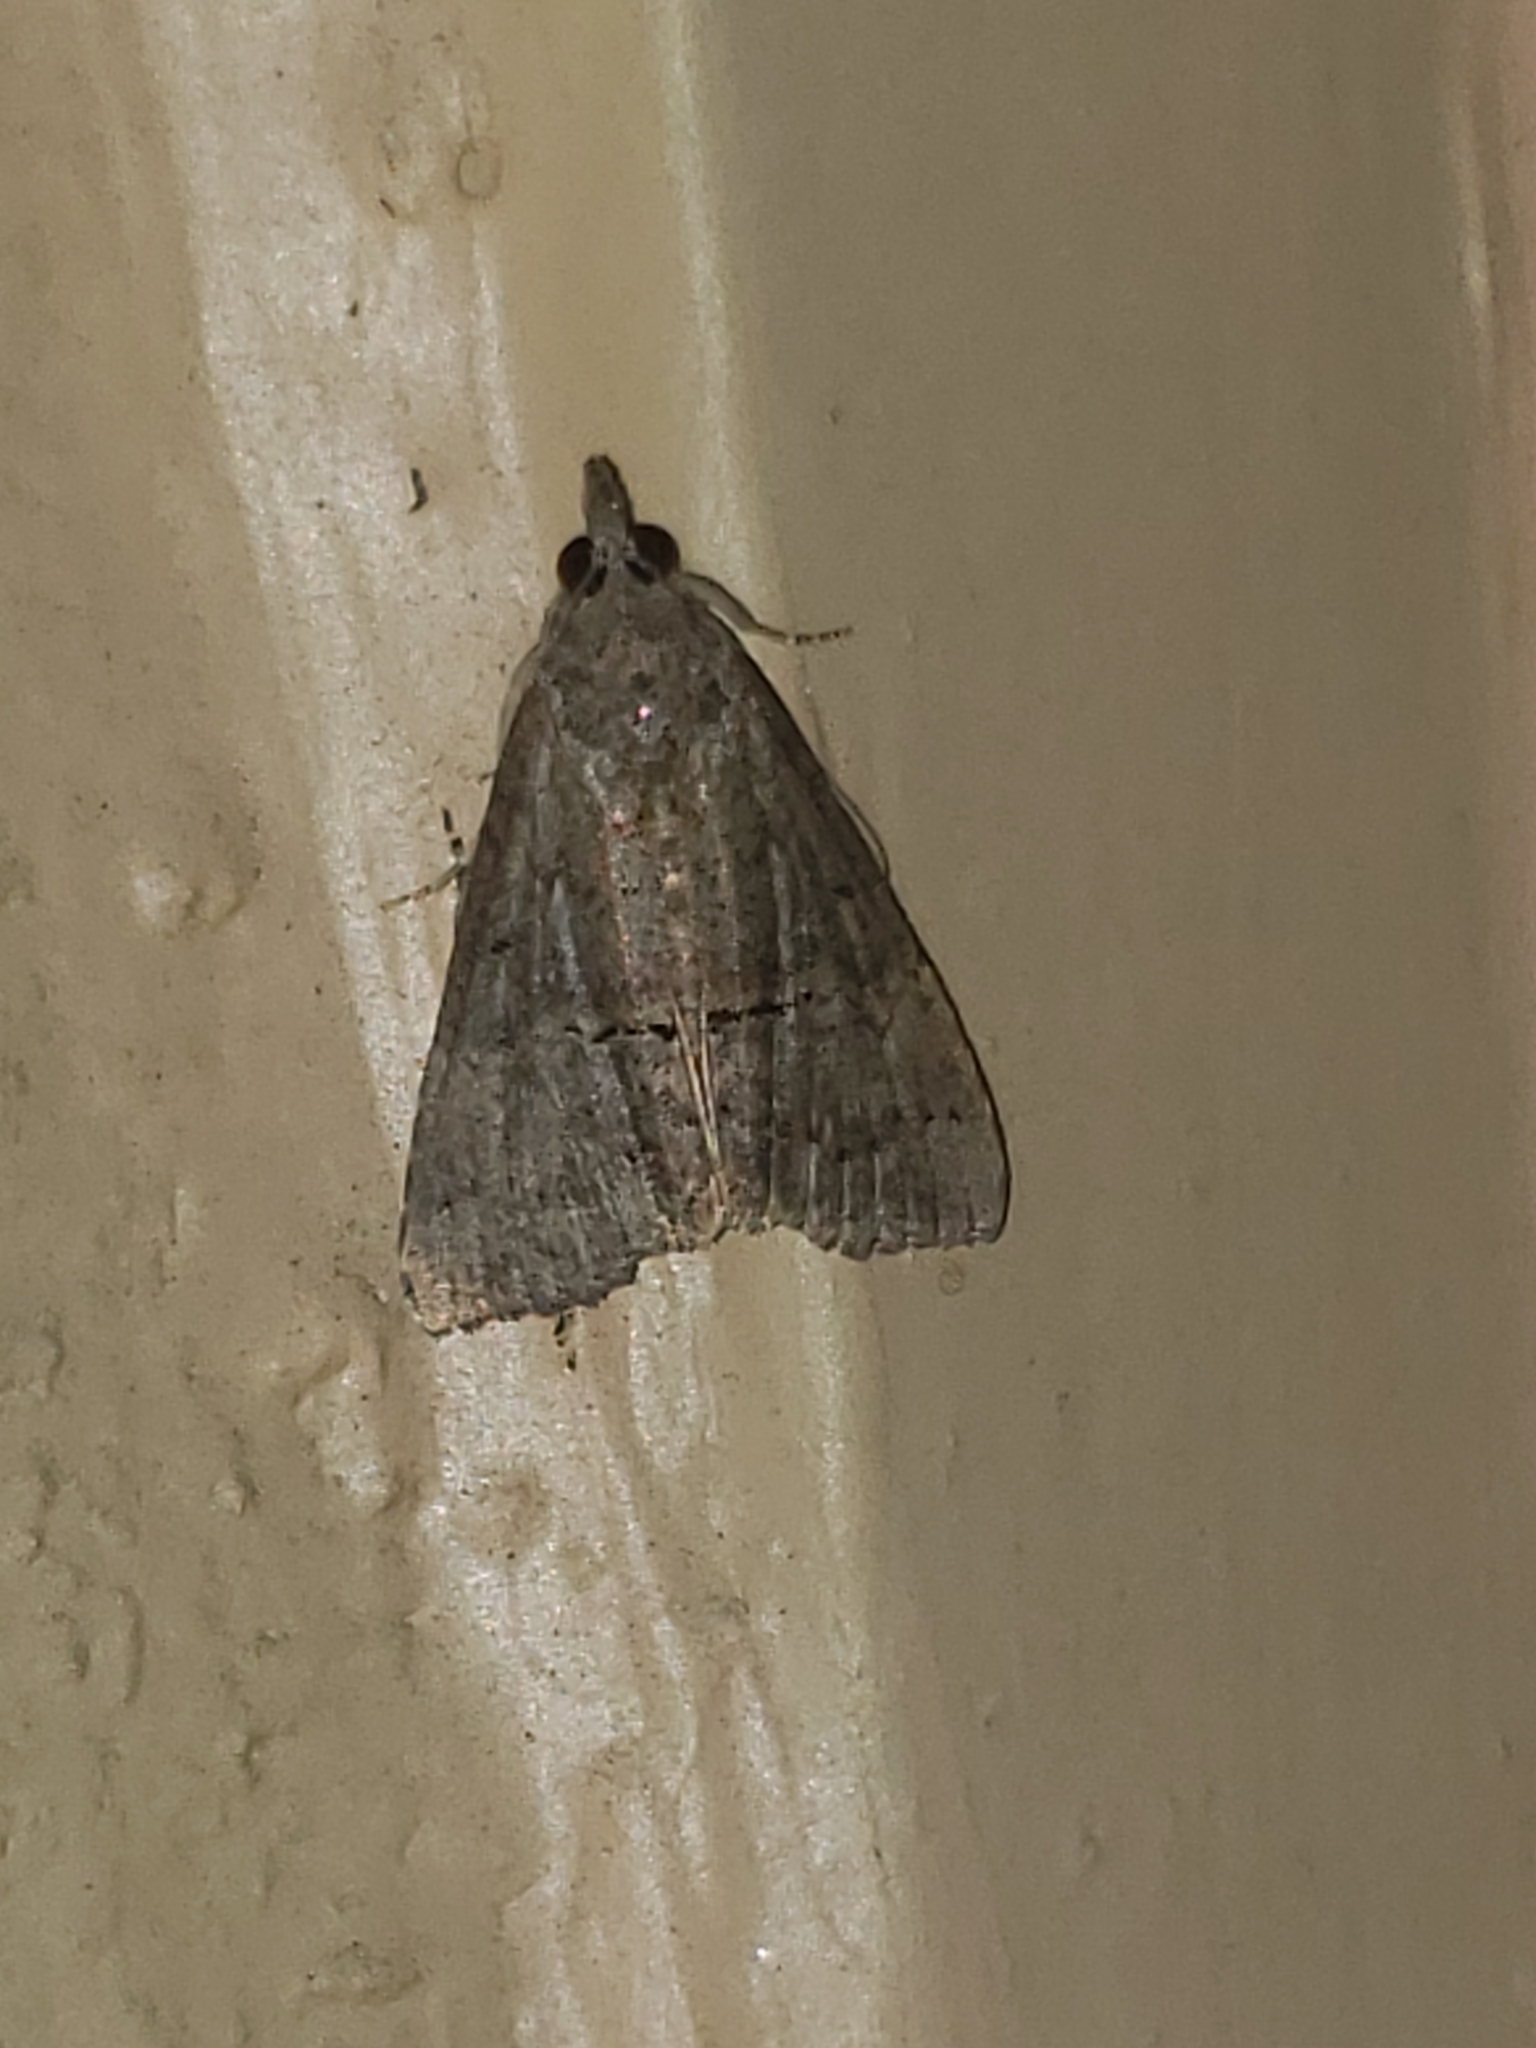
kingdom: Animalia
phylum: Arthropoda
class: Insecta
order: Lepidoptera
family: Erebidae
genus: Hypena
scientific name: Hypena scabra
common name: Green cloverworm
